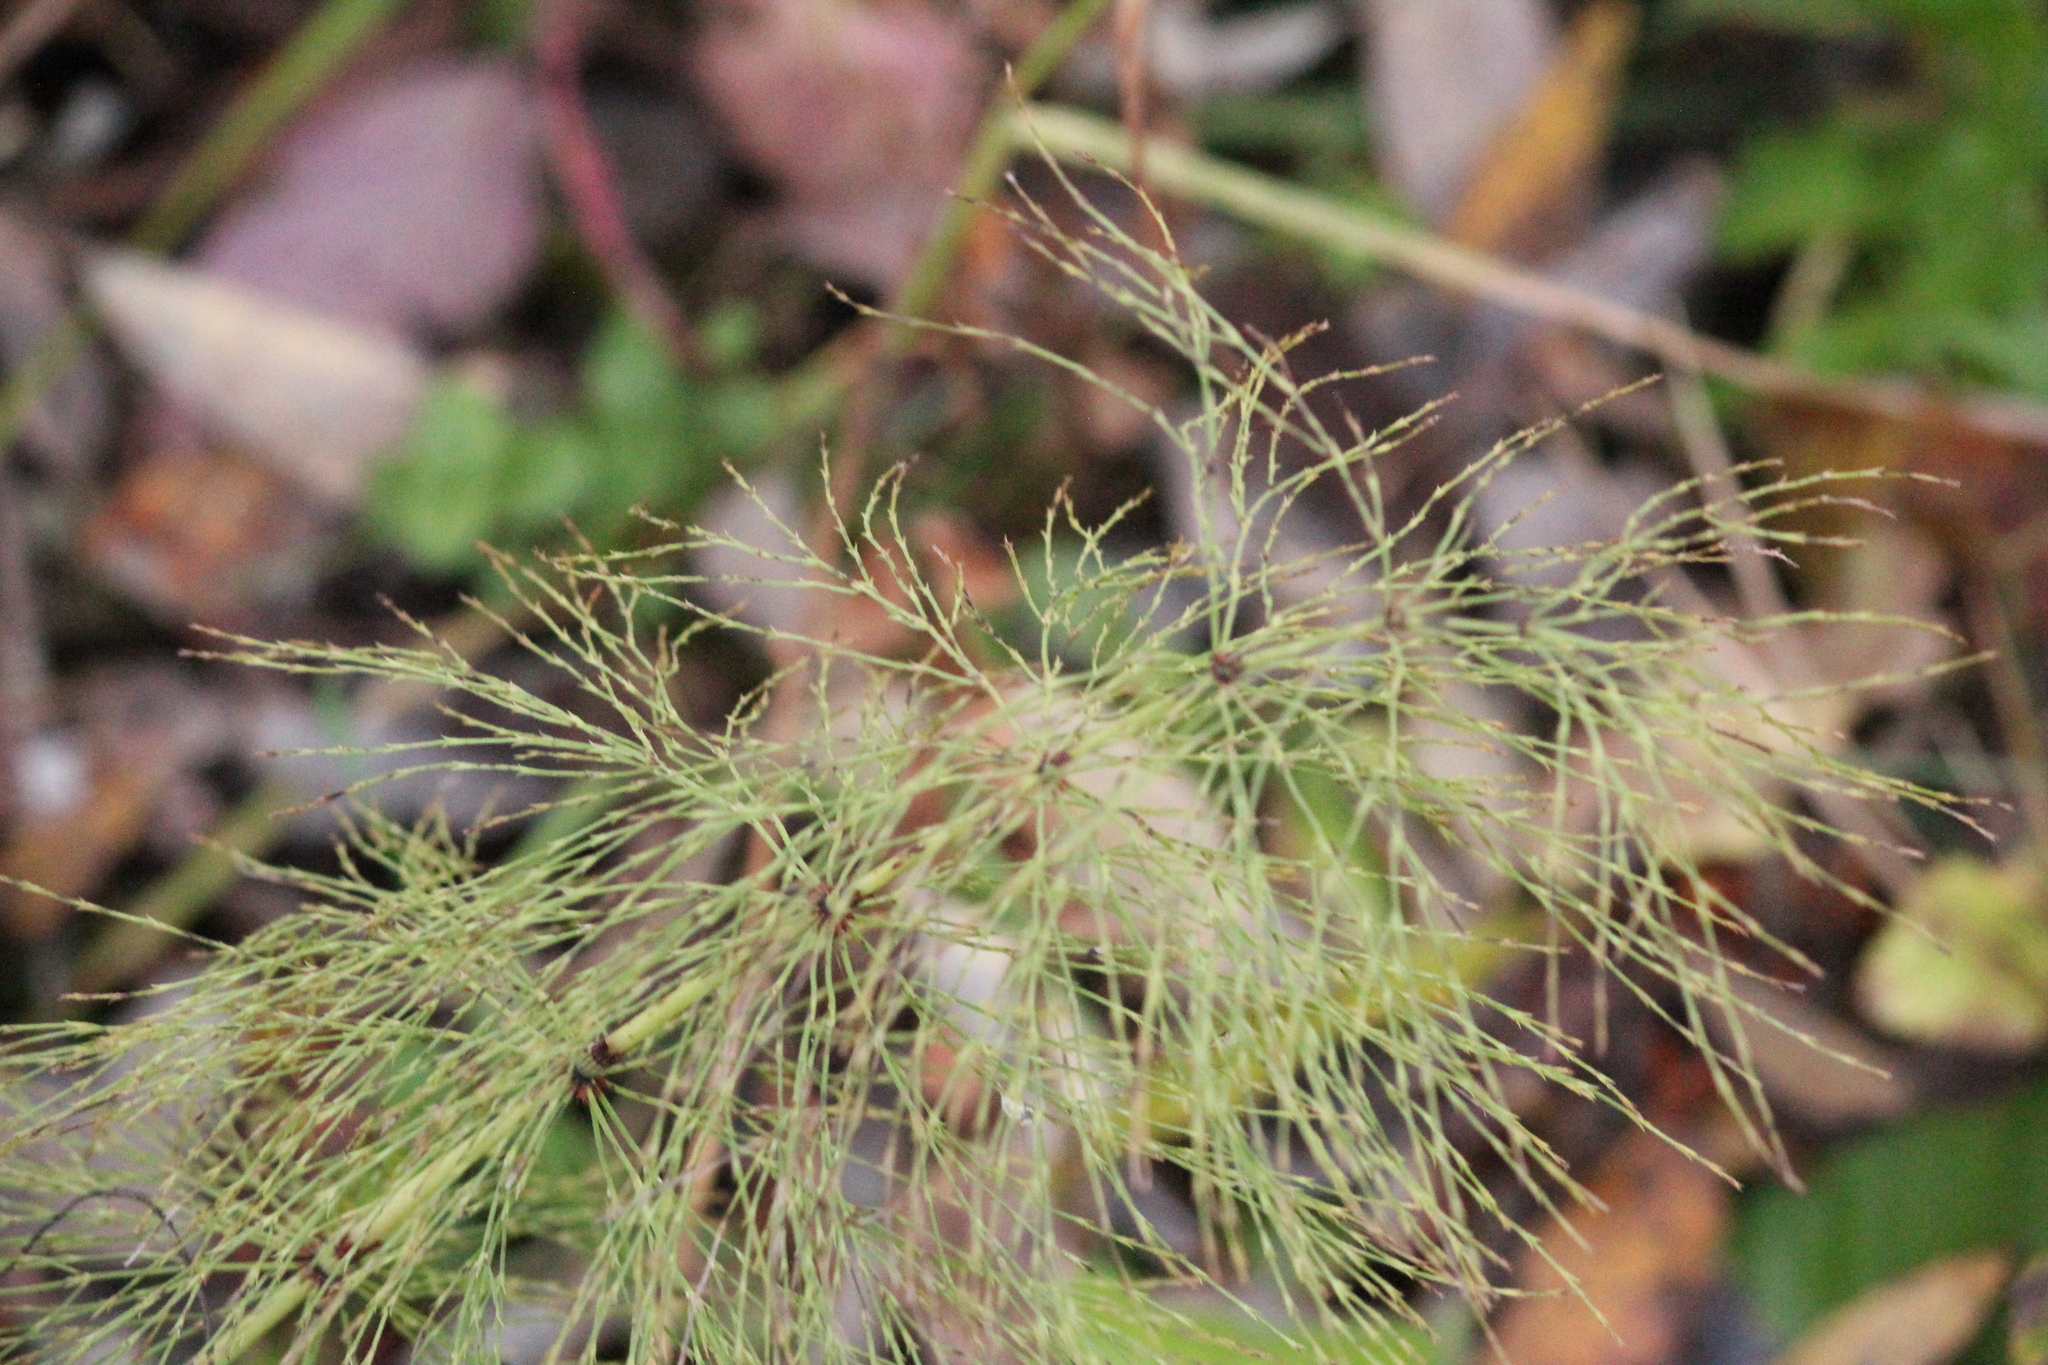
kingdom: Plantae
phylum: Tracheophyta
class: Polypodiopsida
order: Equisetales
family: Equisetaceae
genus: Equisetum
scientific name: Equisetum sylvaticum
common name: Wood horsetail
